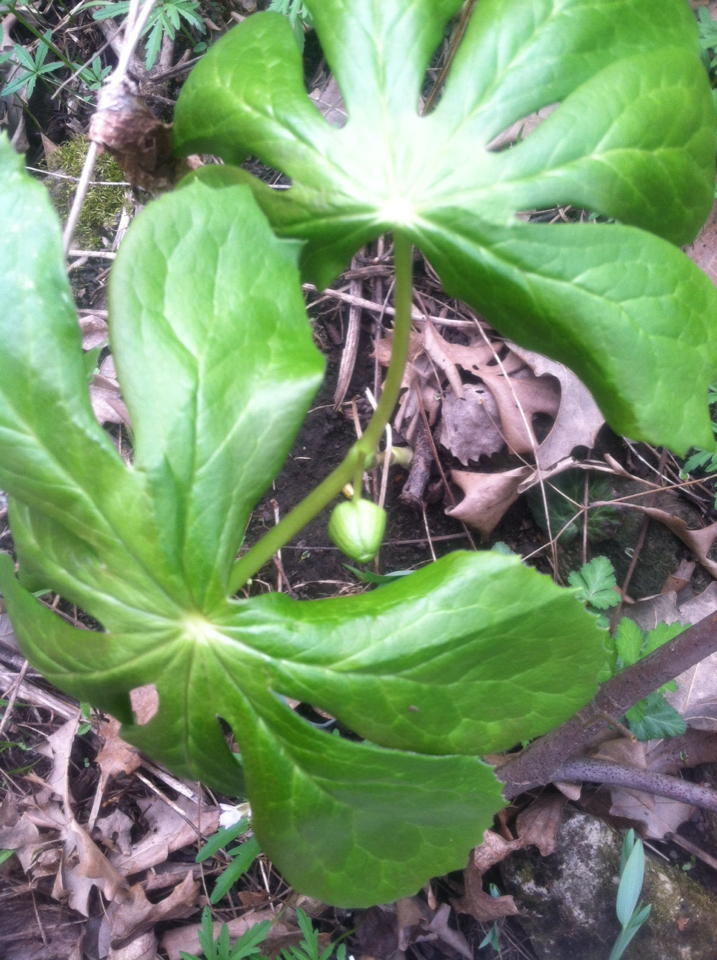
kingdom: Plantae
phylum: Tracheophyta
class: Magnoliopsida
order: Ranunculales
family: Berberidaceae
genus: Podophyllum
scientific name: Podophyllum peltatum
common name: Wild mandrake
